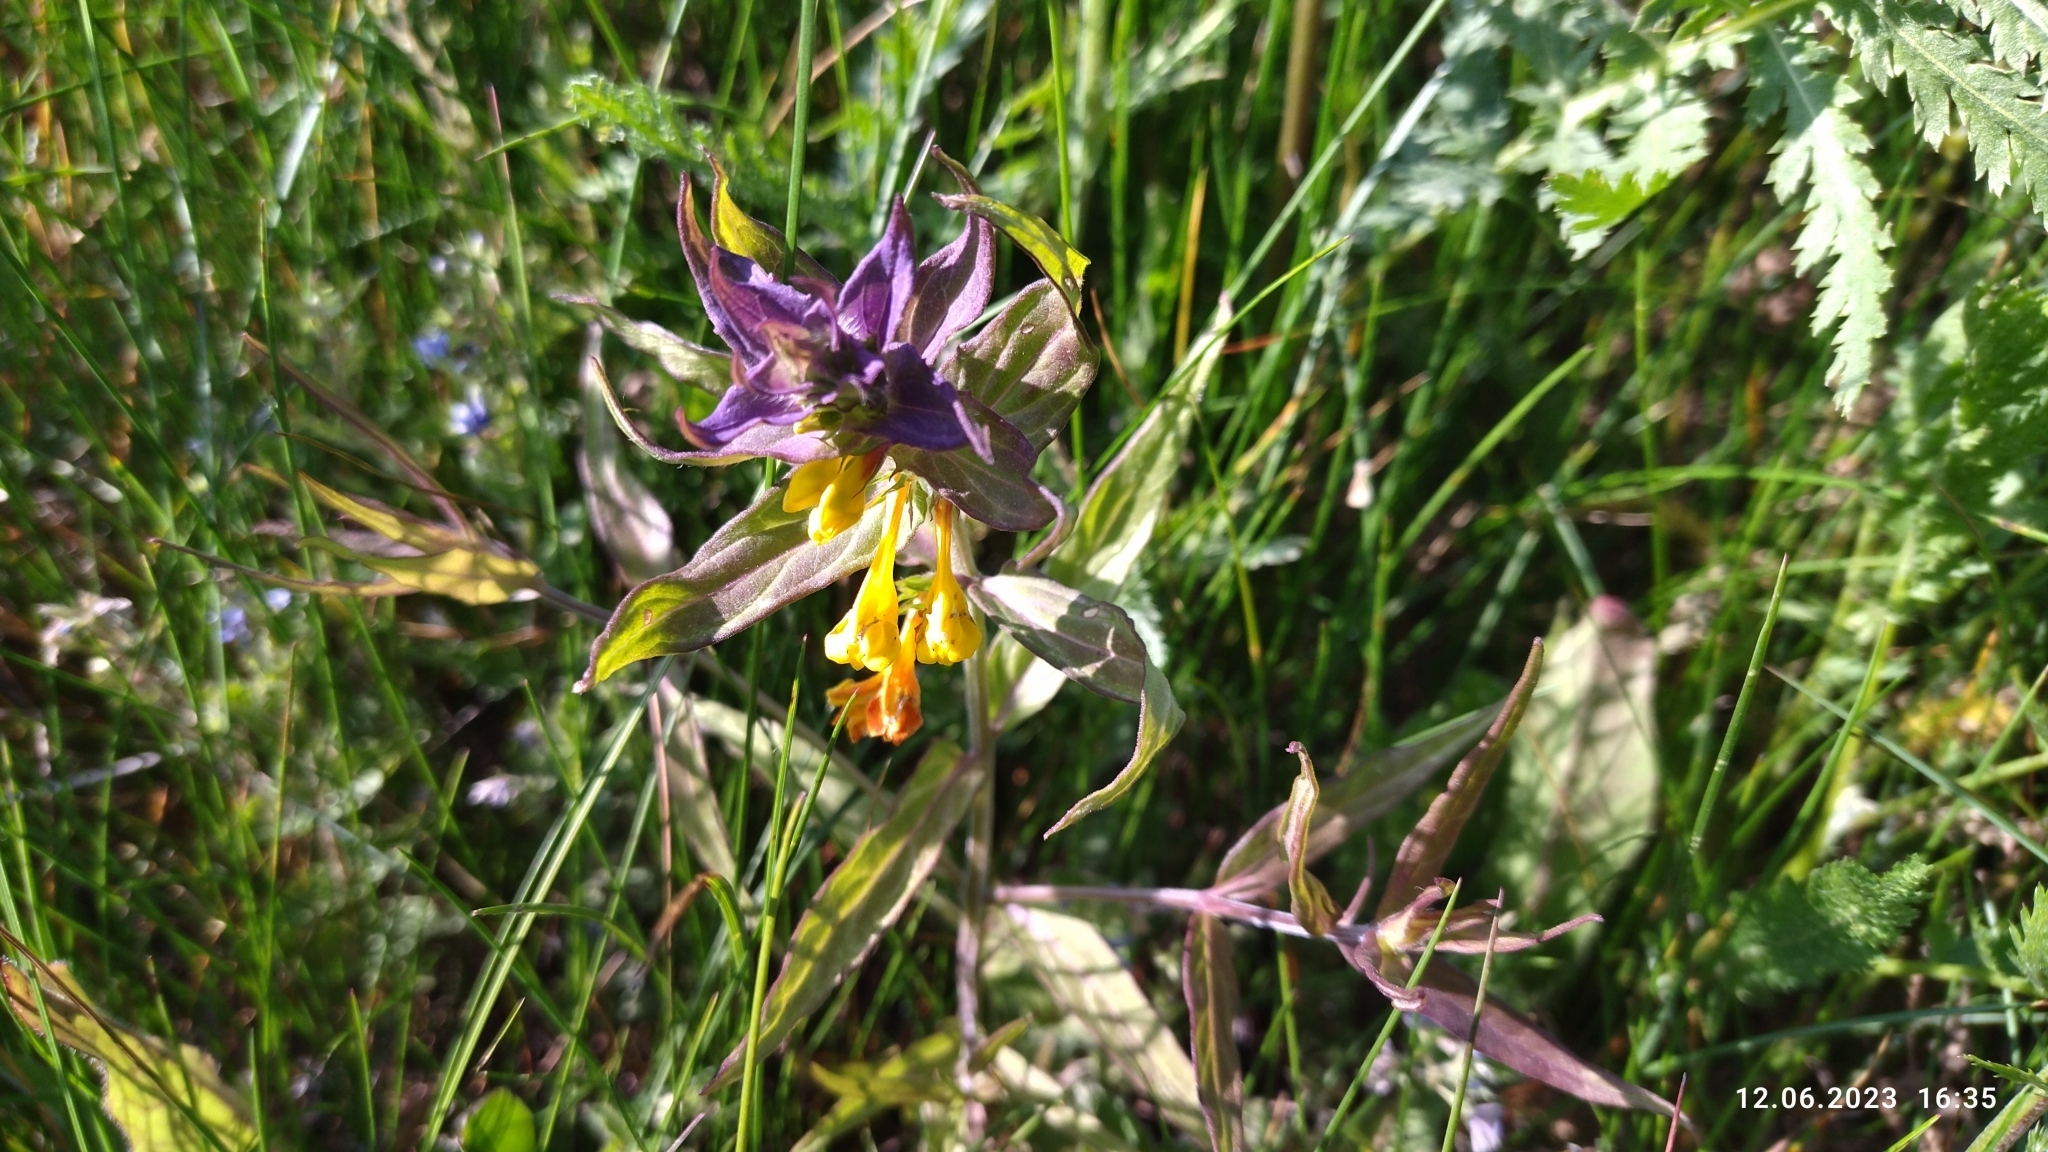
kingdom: Plantae
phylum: Tracheophyta
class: Magnoliopsida
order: Lamiales
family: Orobanchaceae
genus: Melampyrum
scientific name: Melampyrum nemorosum
